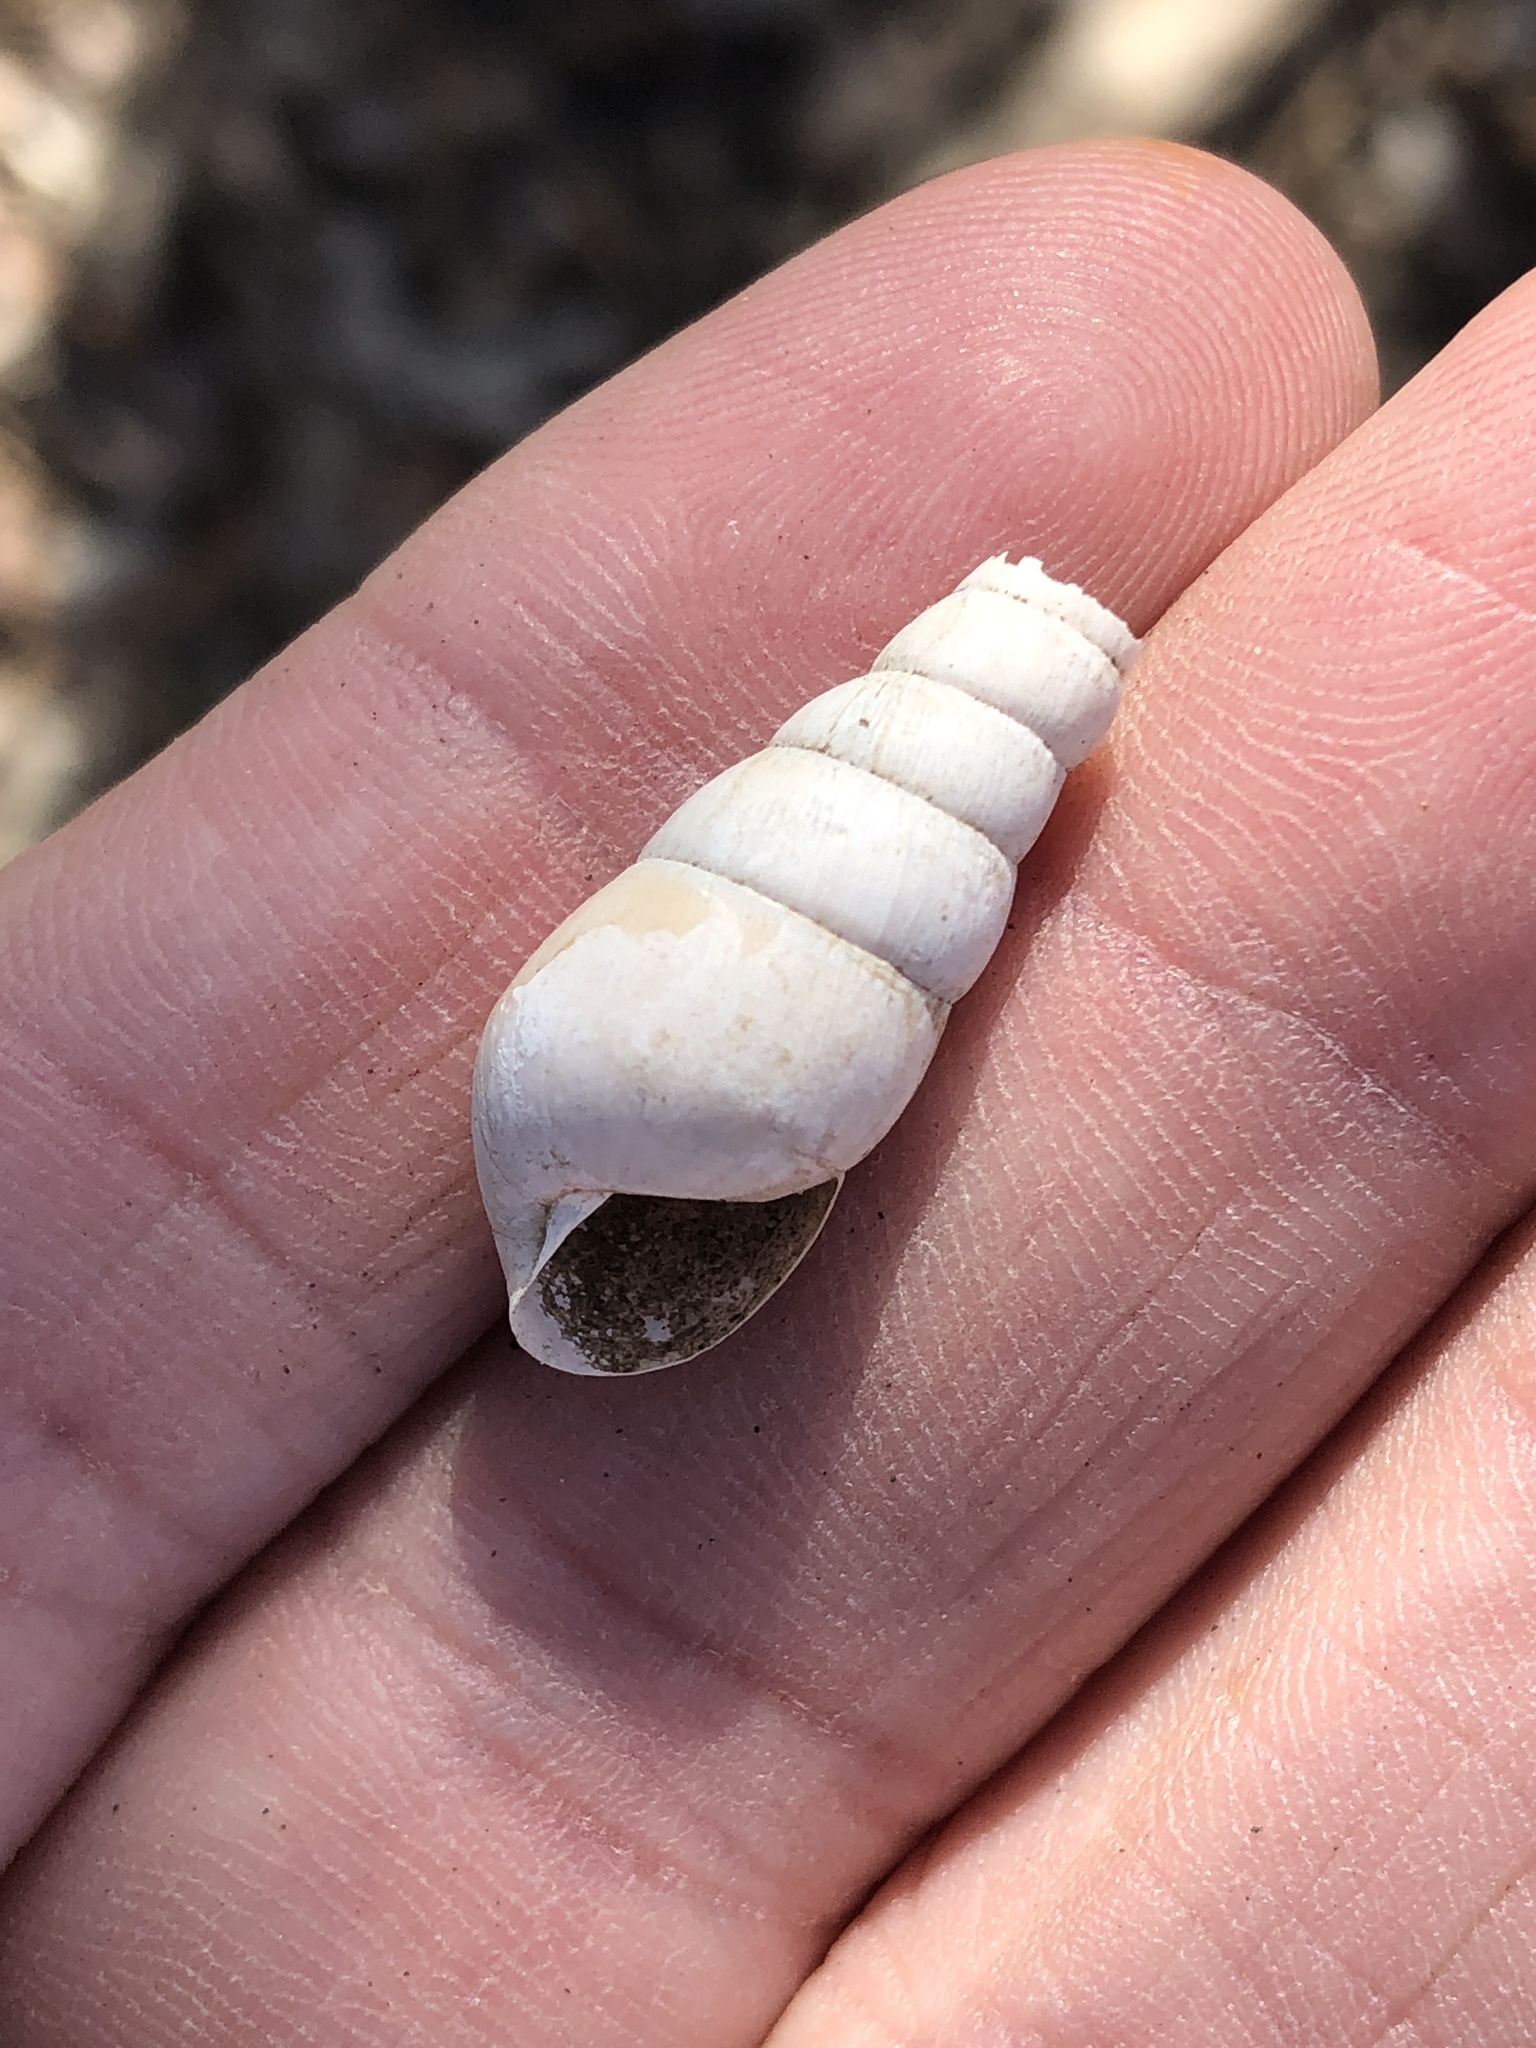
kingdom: Animalia
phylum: Mollusca
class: Gastropoda
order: Stylommatophora
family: Achatinidae
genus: Rumina
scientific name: Rumina decollata
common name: Decollate snail
